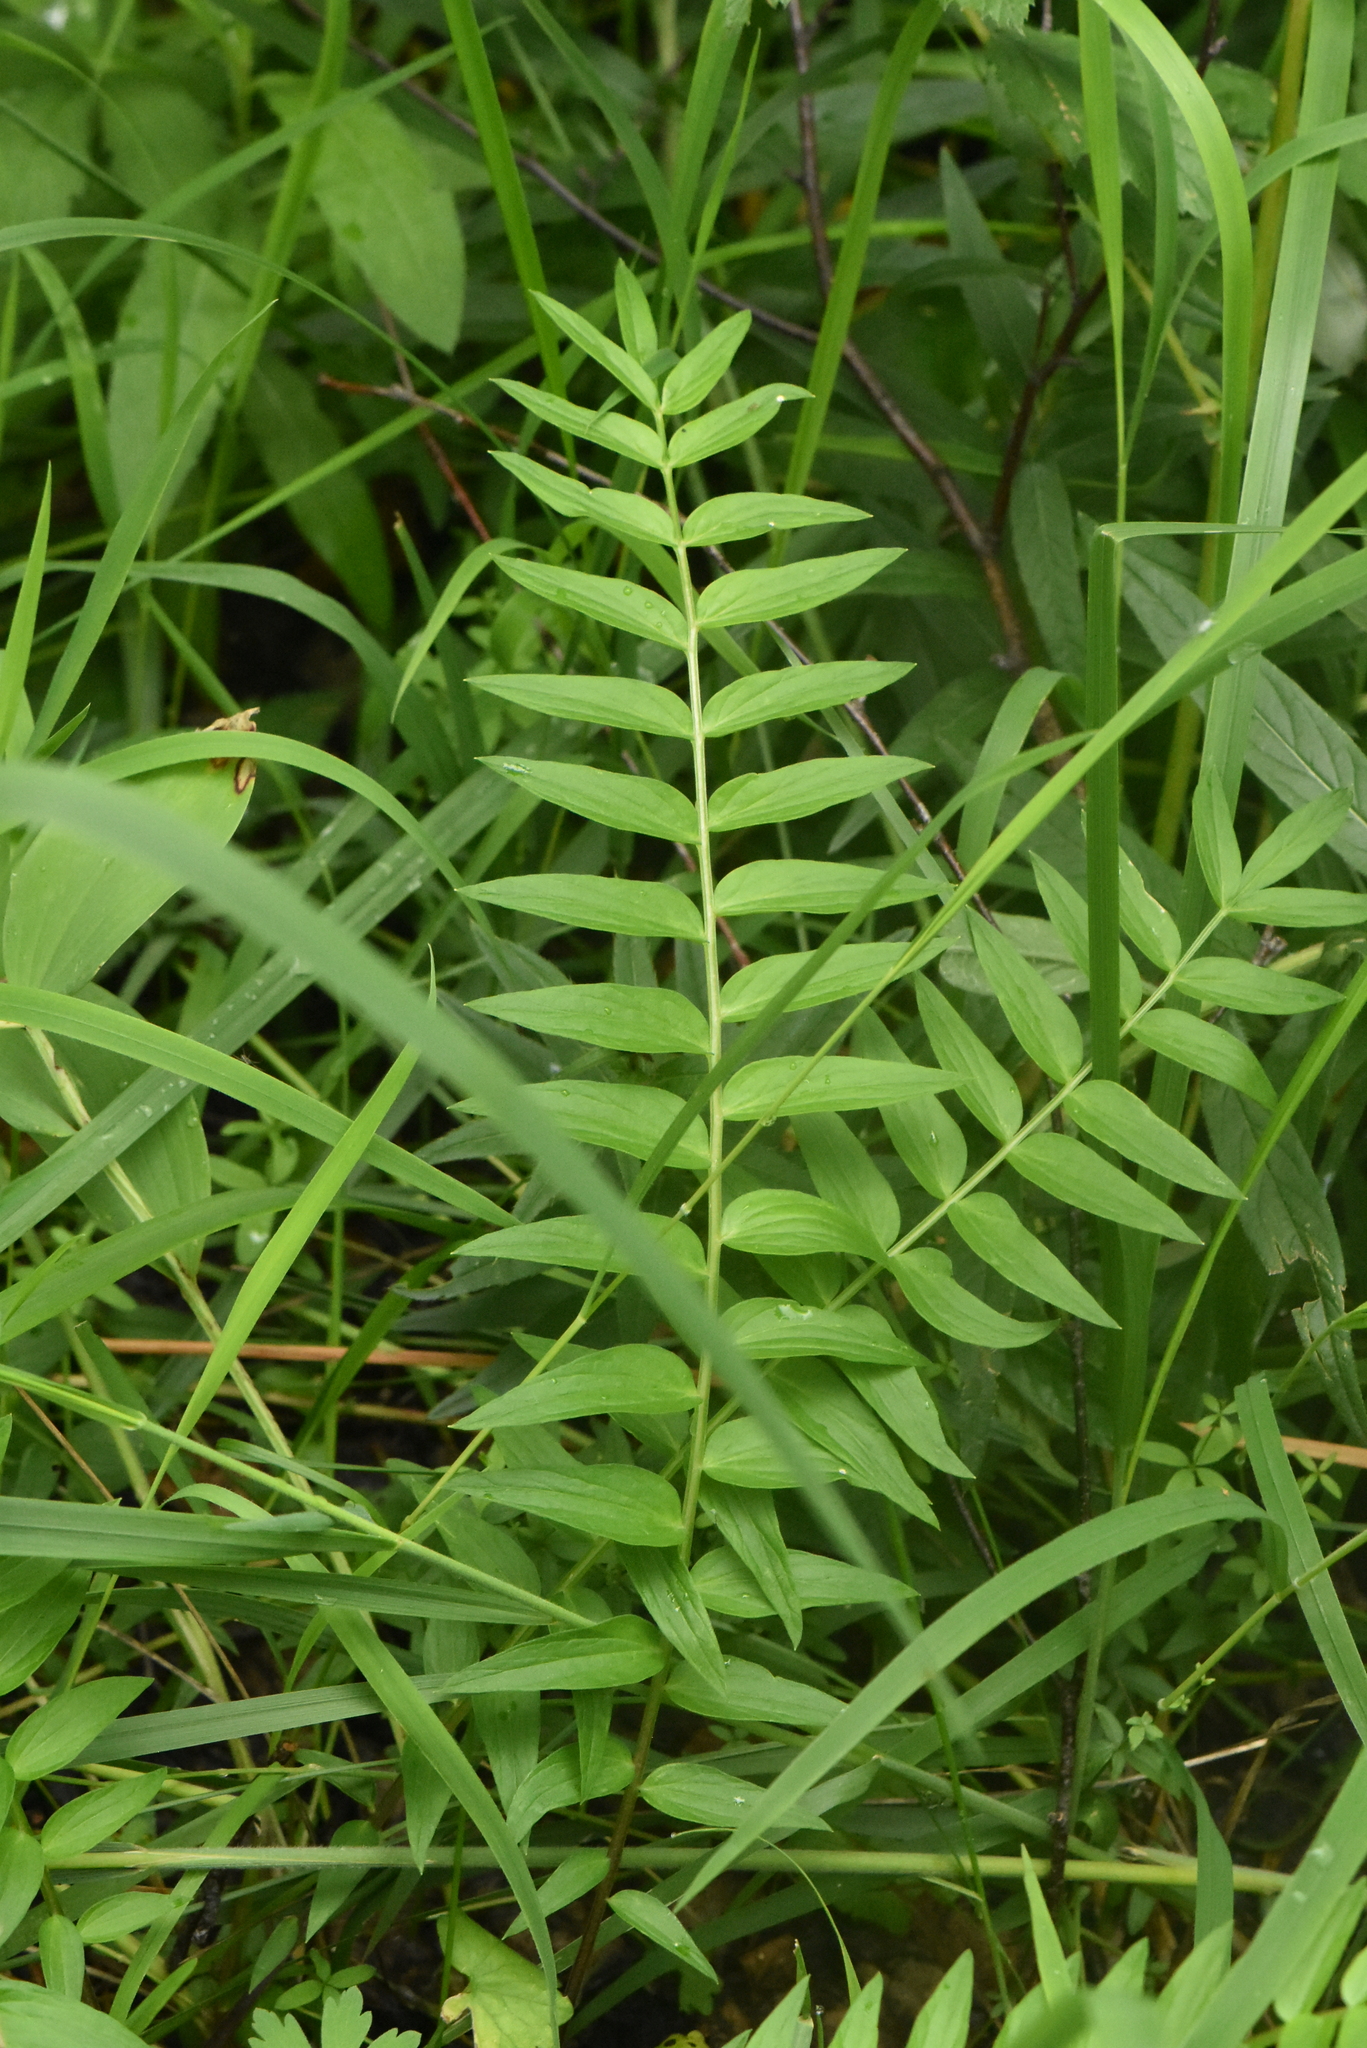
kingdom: Plantae
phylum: Tracheophyta
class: Magnoliopsida
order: Ericales
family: Polemoniaceae
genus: Polemonium
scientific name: Polemonium caeruleum
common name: Jacob's-ladder
